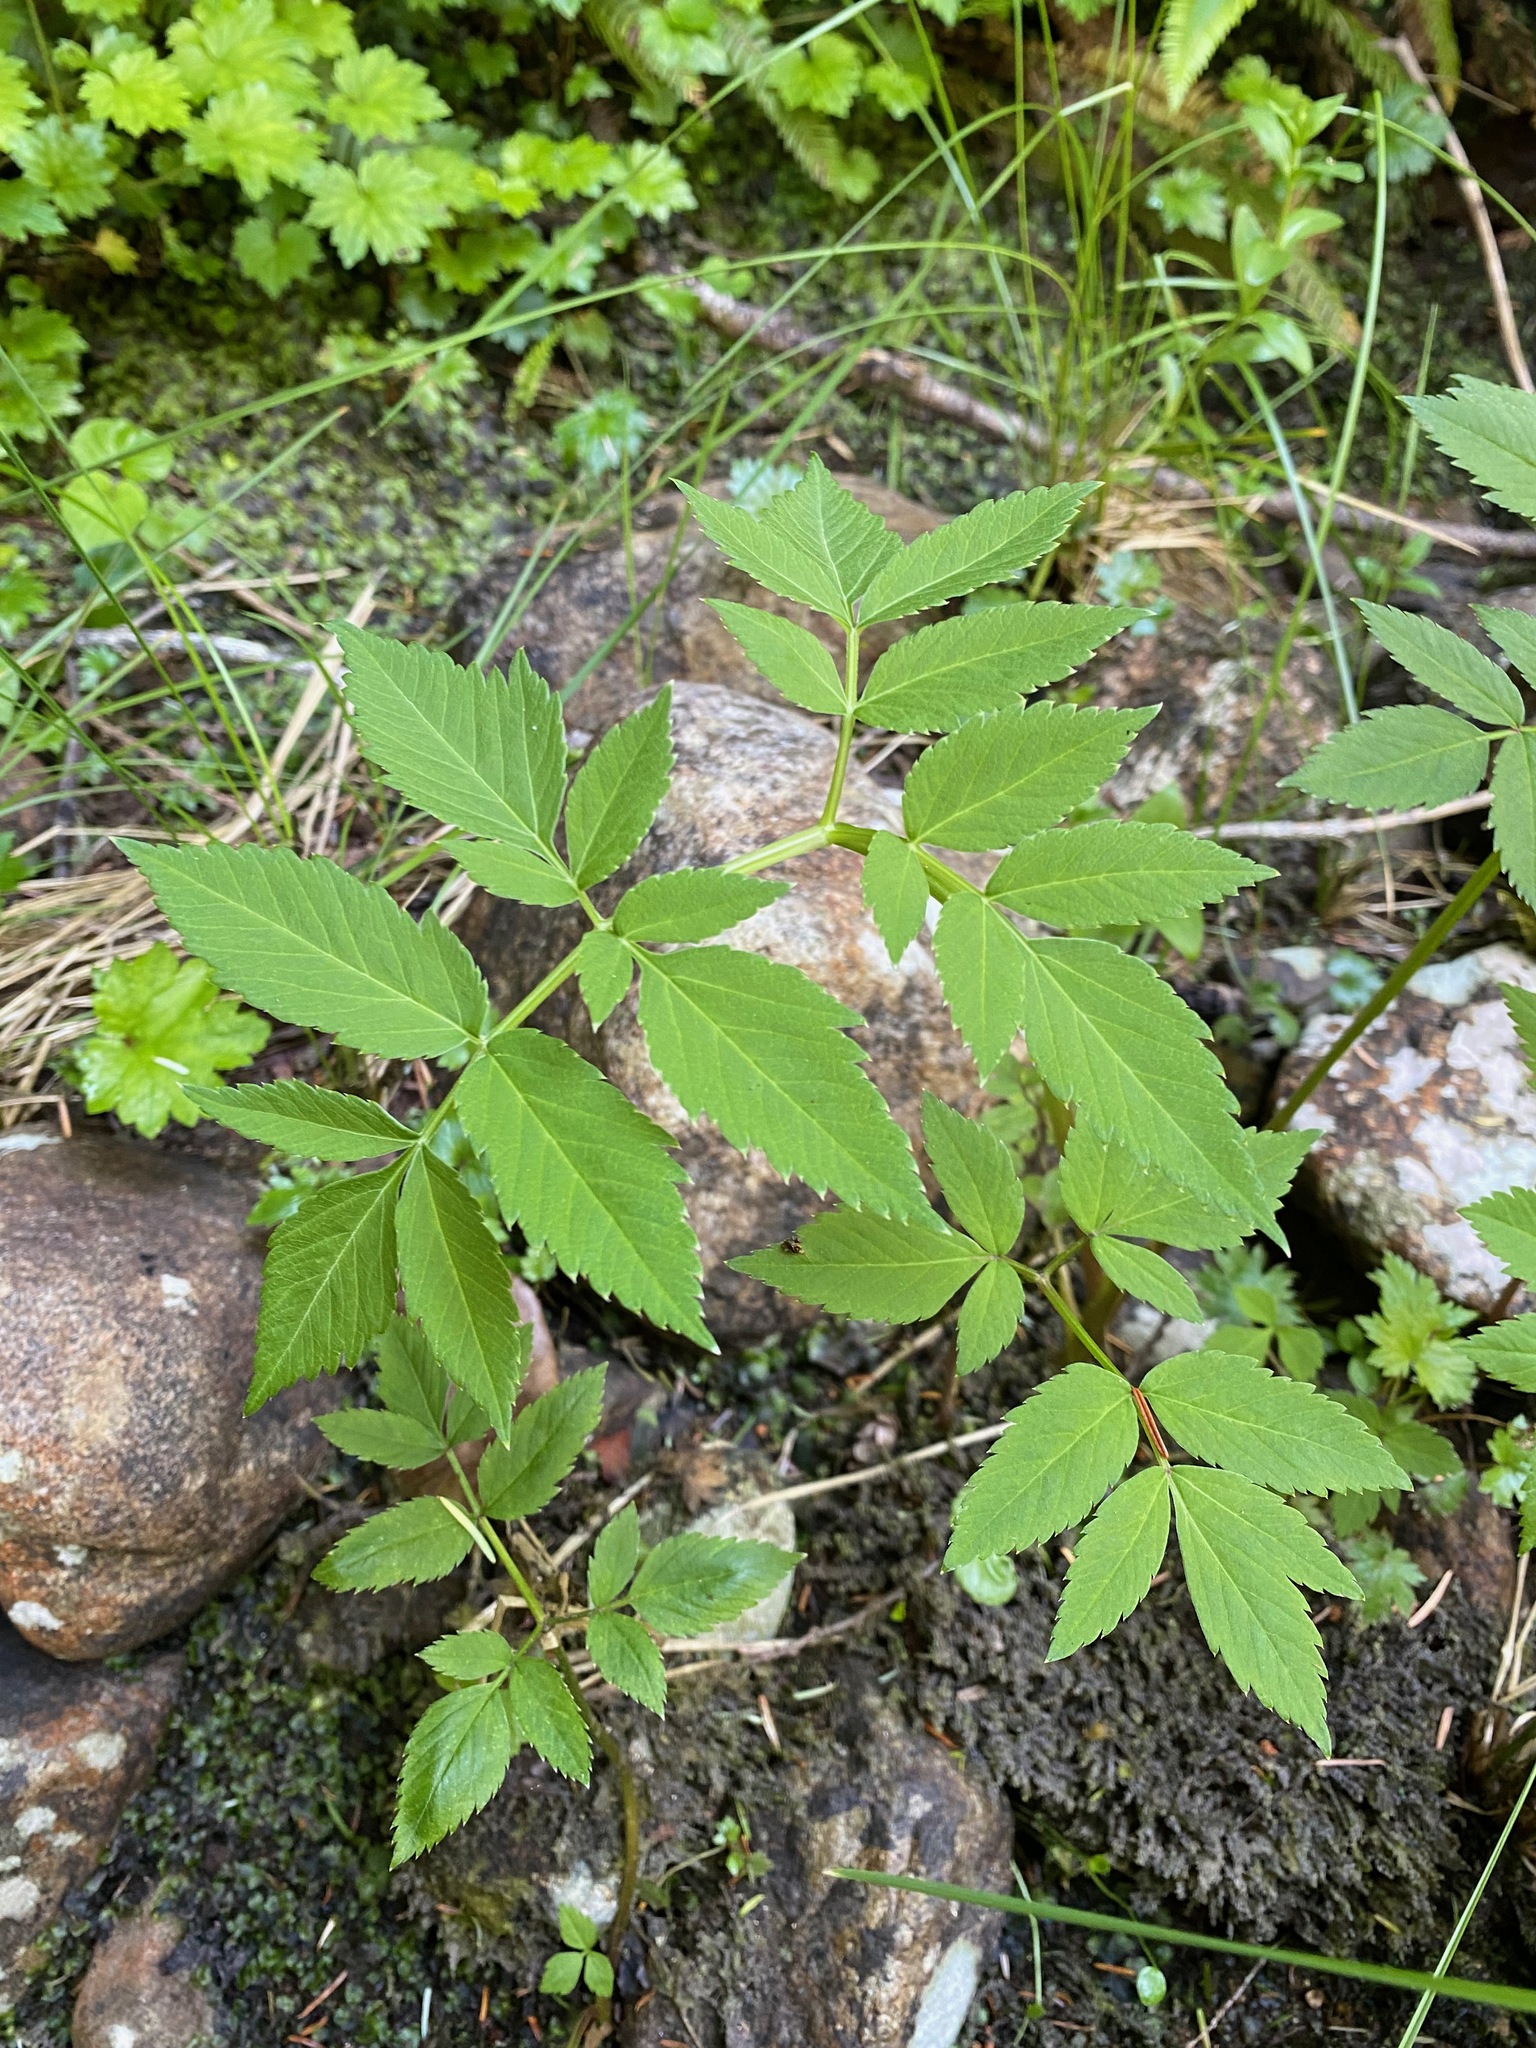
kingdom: Plantae
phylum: Tracheophyta
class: Magnoliopsida
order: Apiales
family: Apiaceae
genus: Angelica
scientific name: Angelica genuflexa
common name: Kneeling angelica
